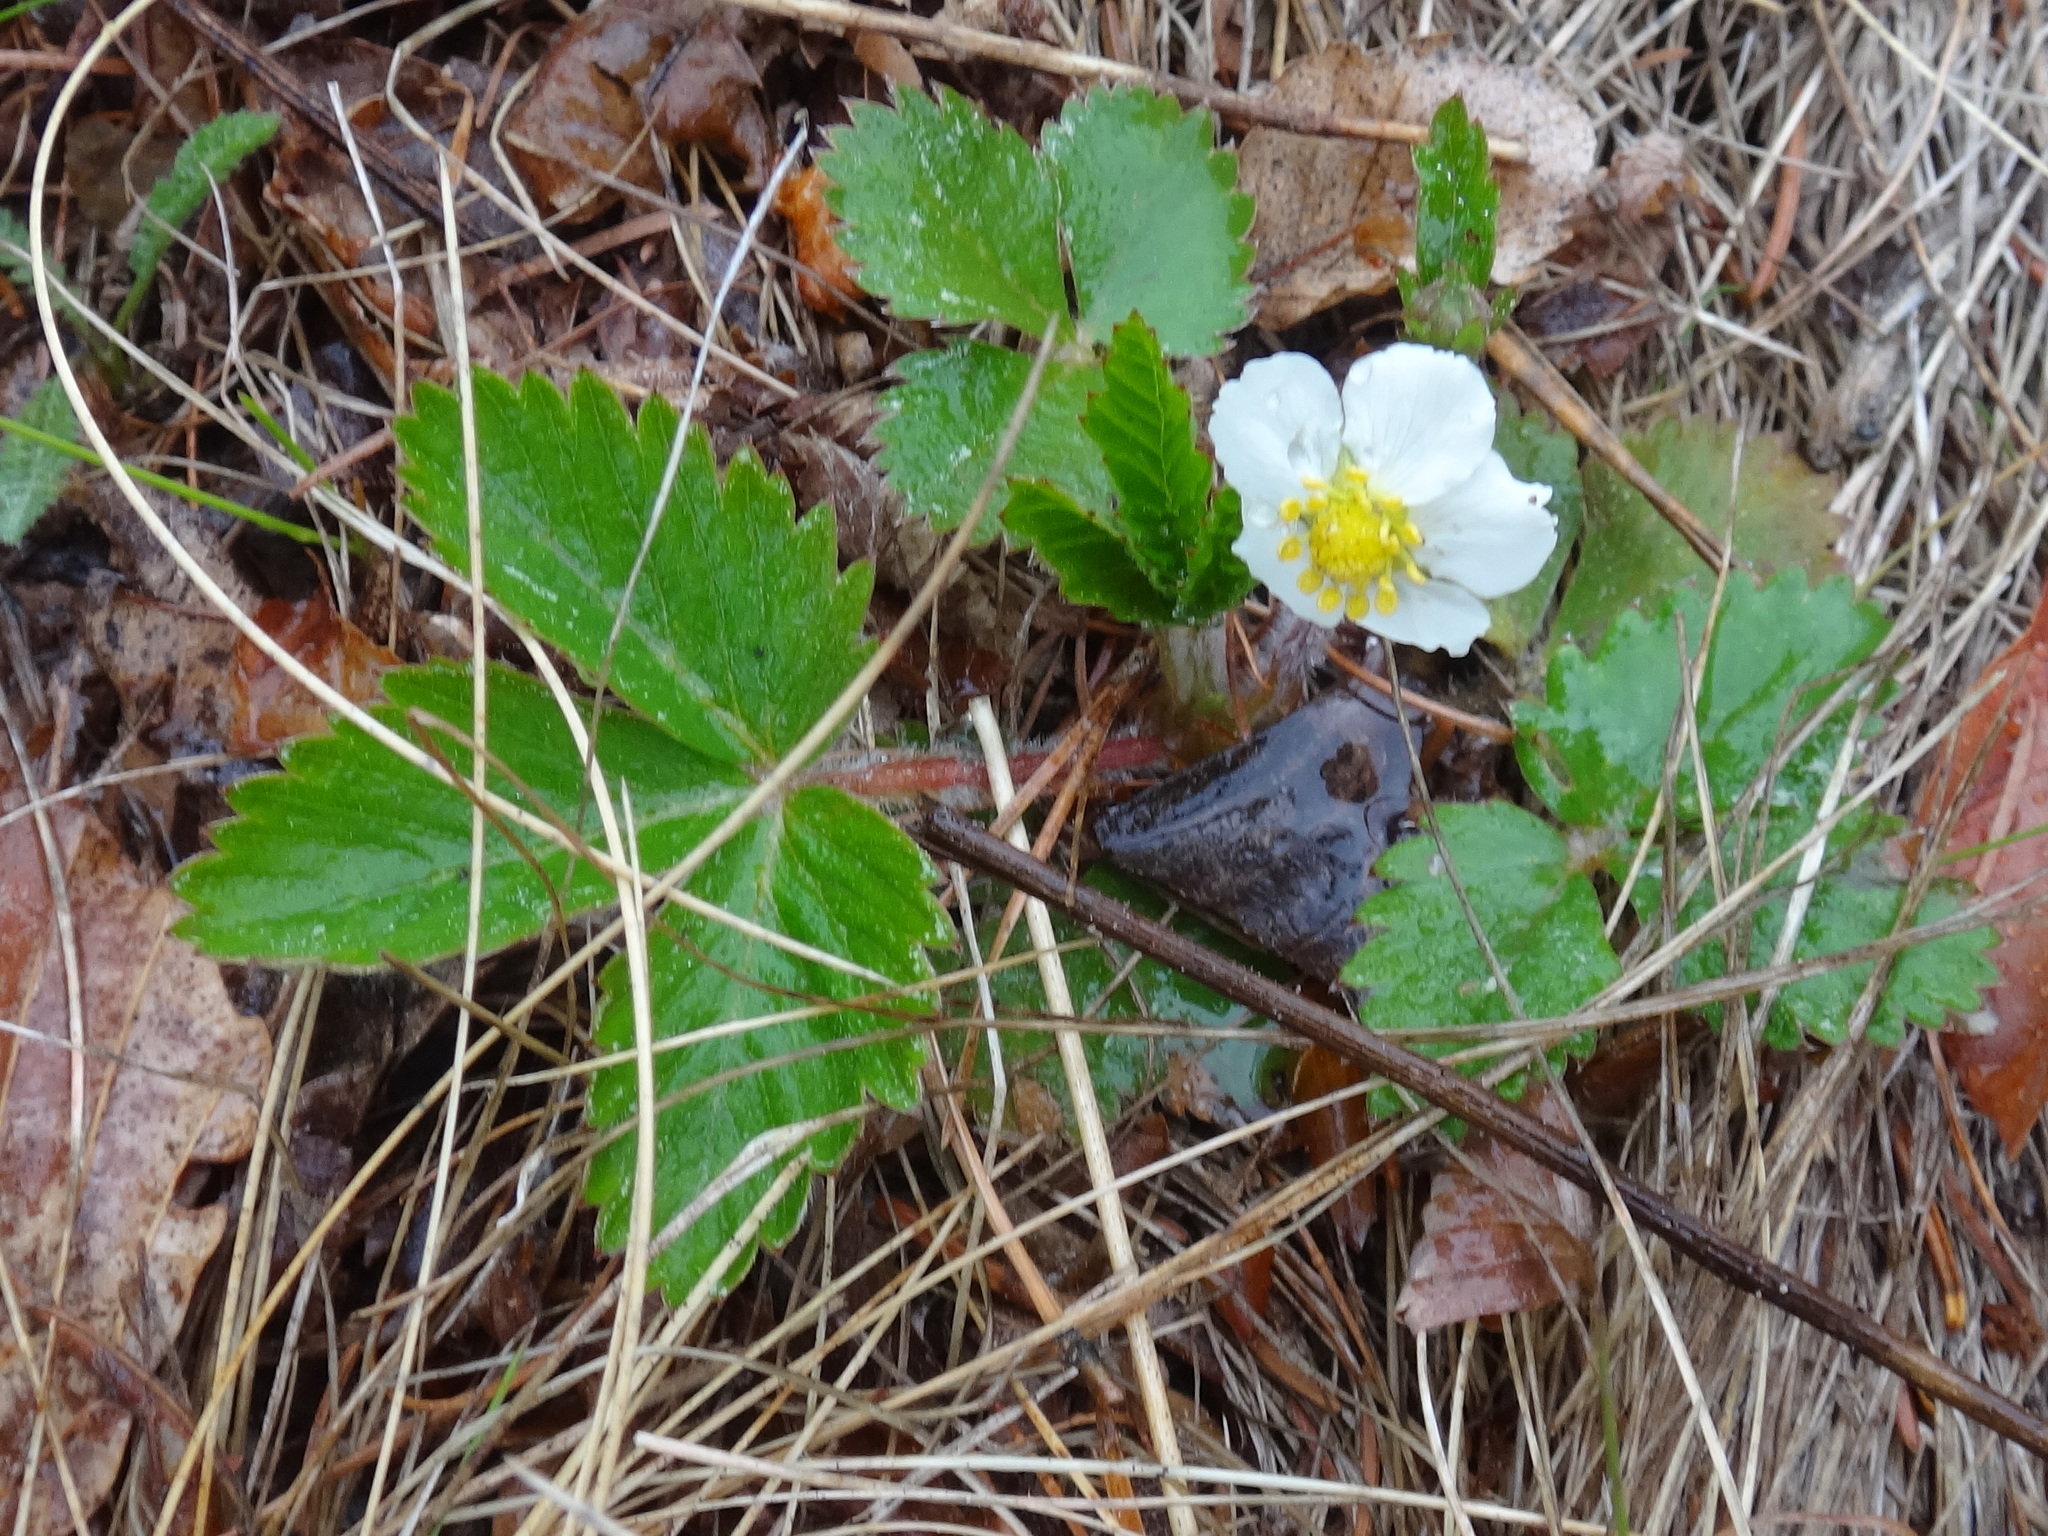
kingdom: Plantae
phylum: Tracheophyta
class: Magnoliopsida
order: Rosales
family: Rosaceae
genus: Fragaria
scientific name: Fragaria vesca
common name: Wild strawberry
